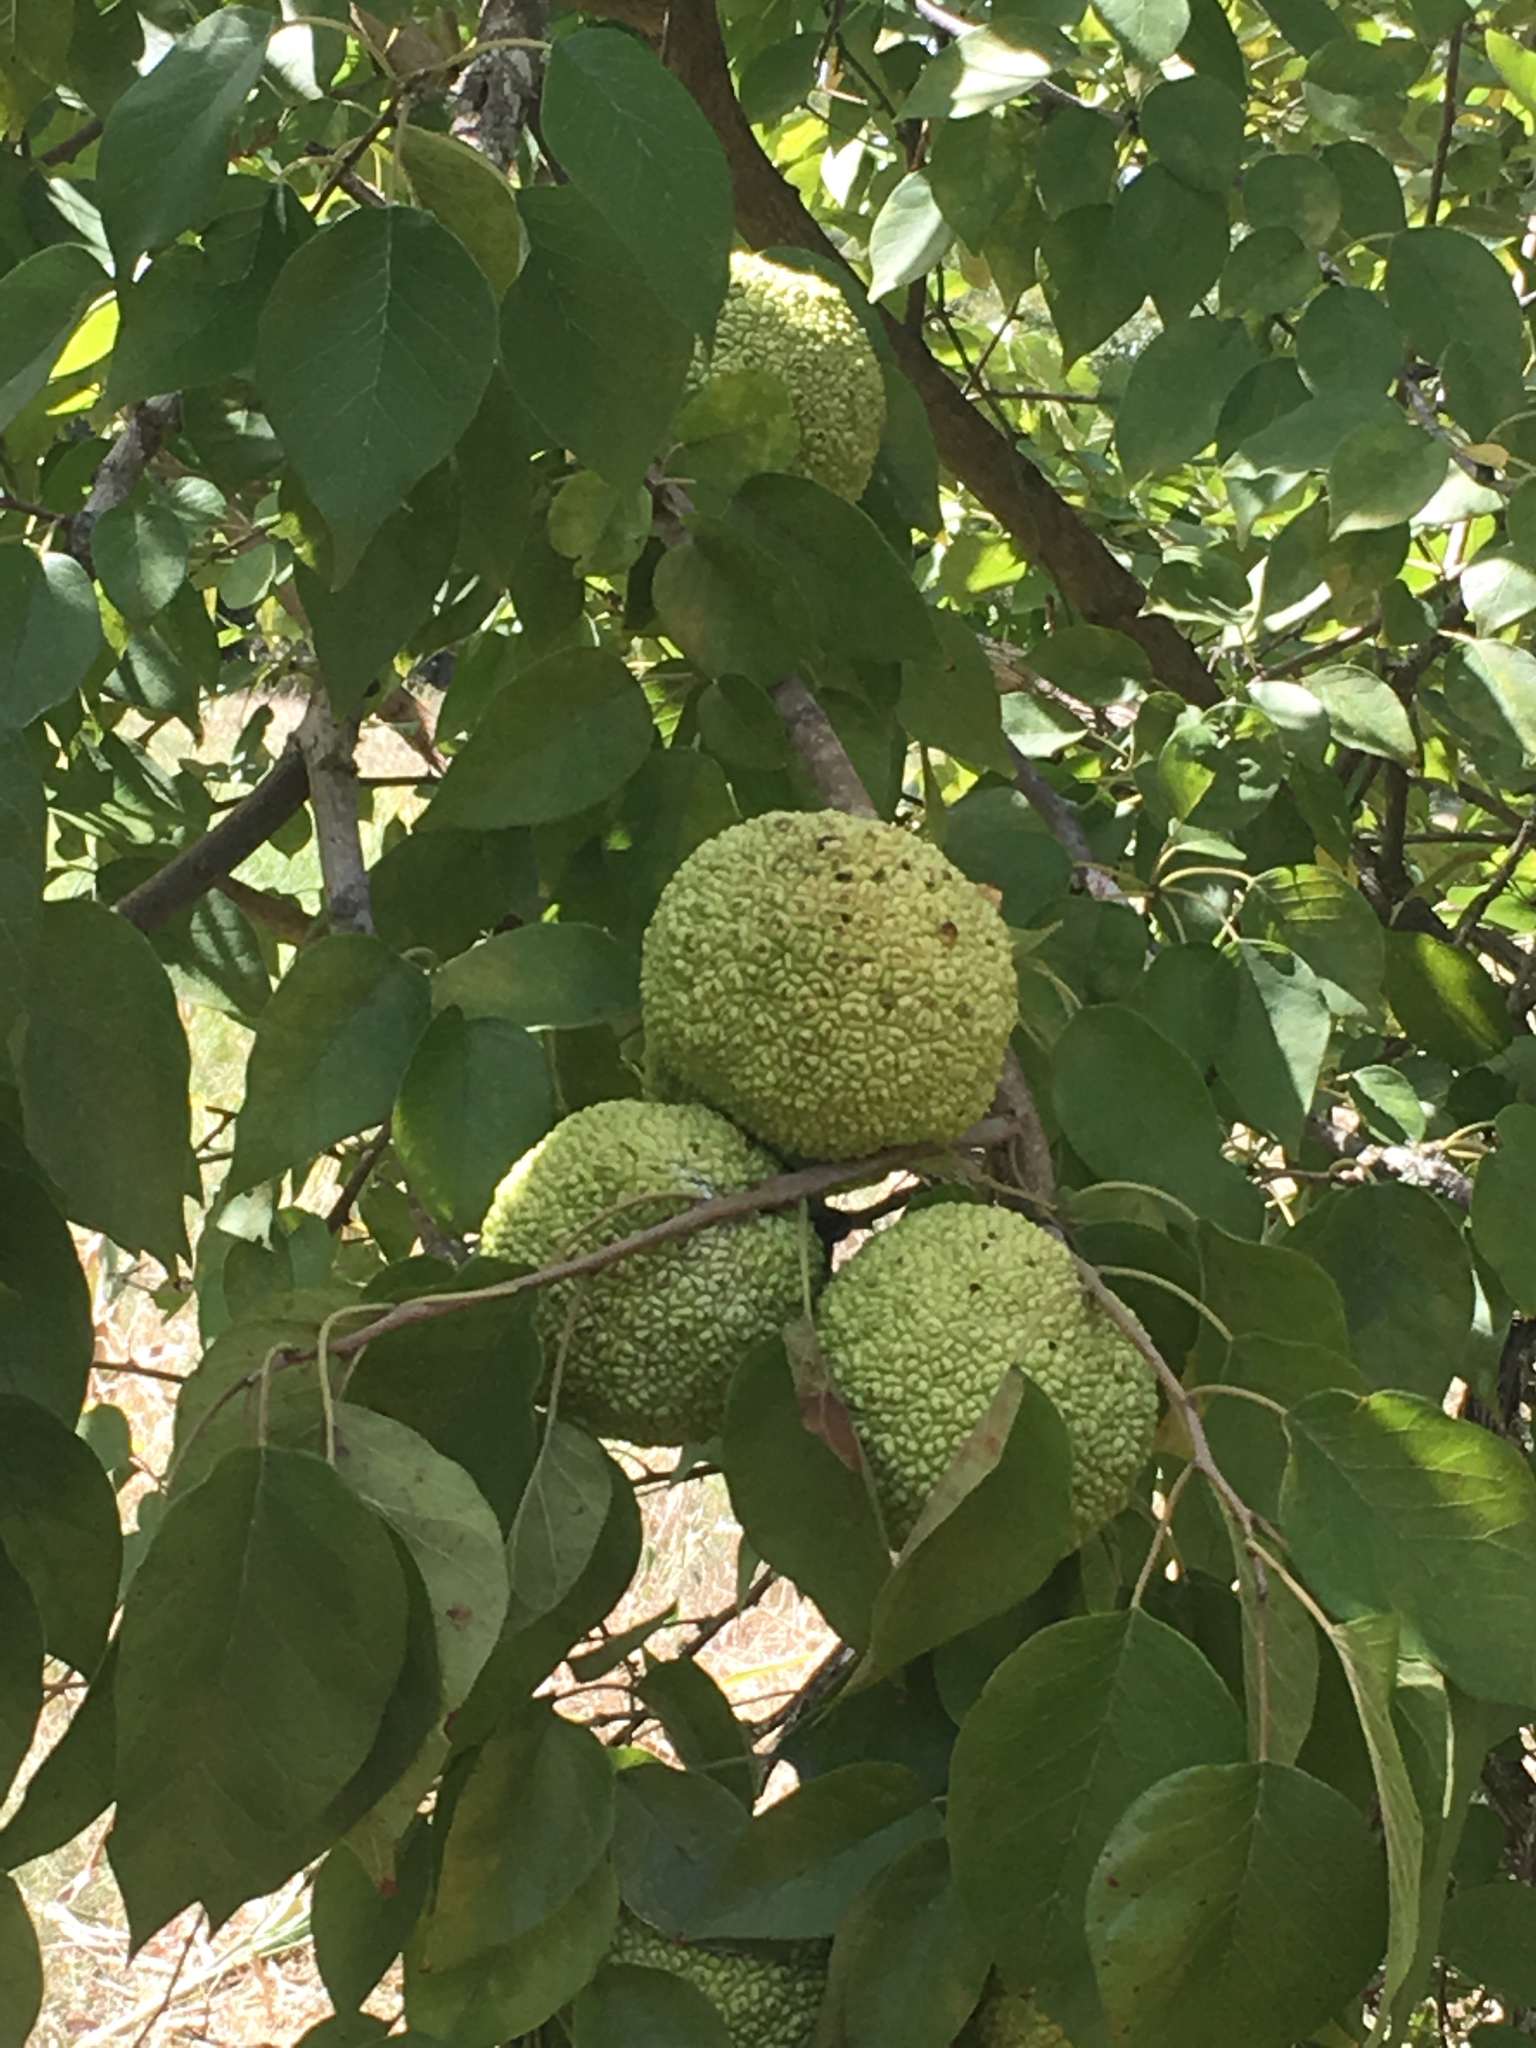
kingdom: Plantae
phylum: Tracheophyta
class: Magnoliopsida
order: Rosales
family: Moraceae
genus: Maclura
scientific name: Maclura pomifera
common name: Osage-orange
